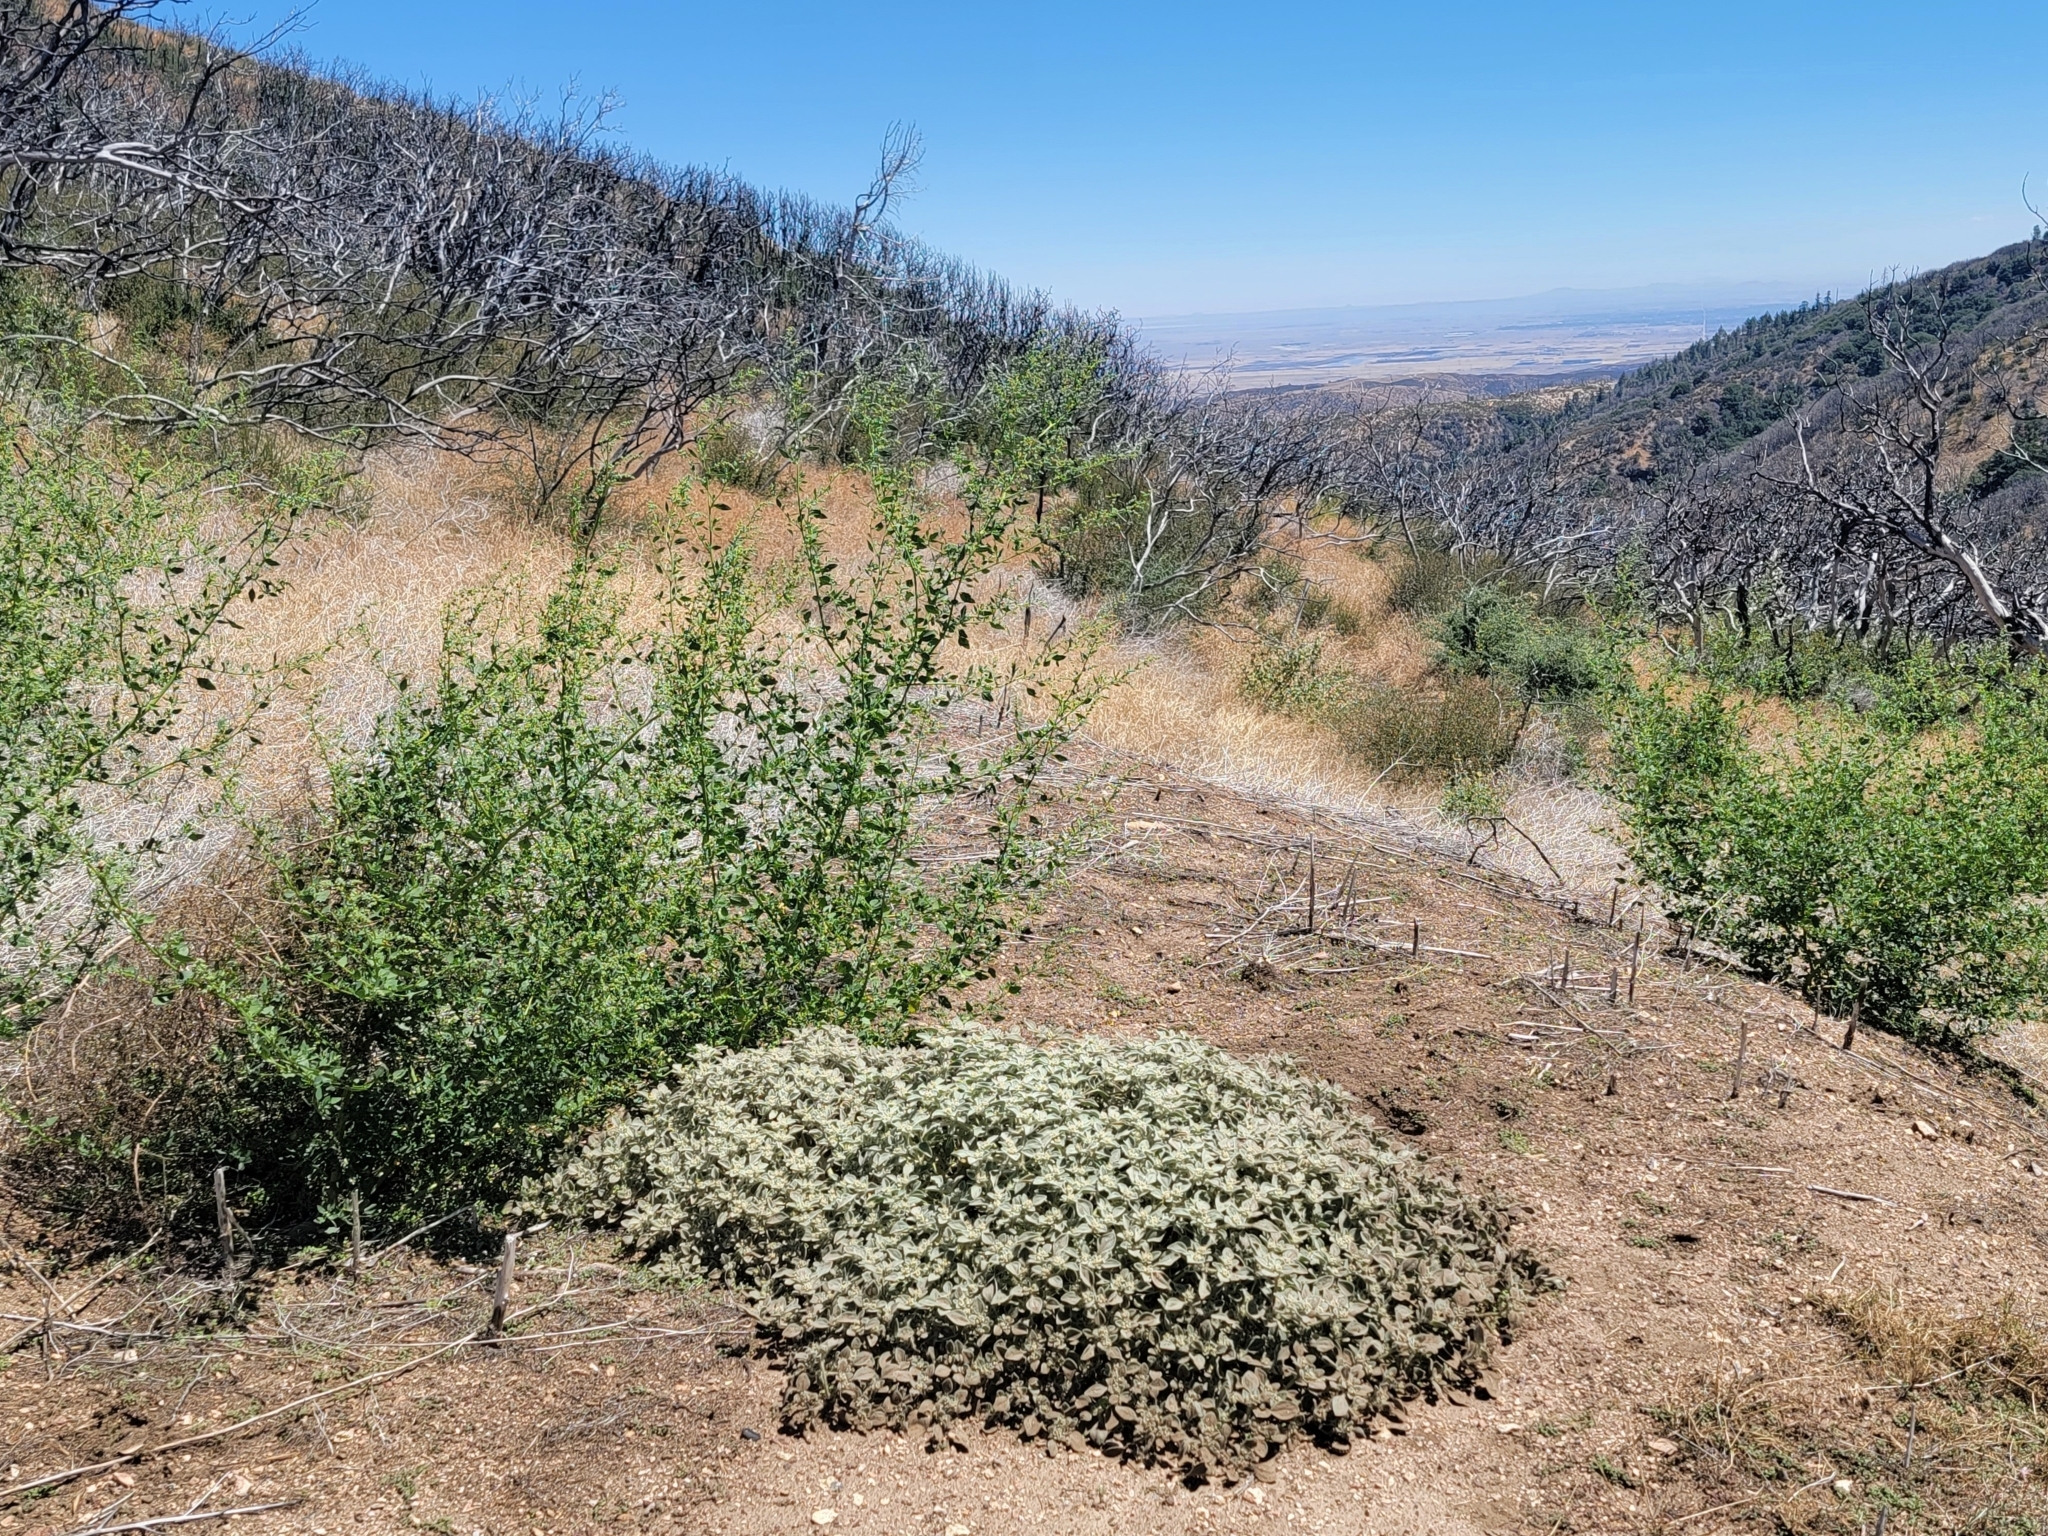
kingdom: Plantae
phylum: Tracheophyta
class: Magnoliopsida
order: Malpighiales
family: Euphorbiaceae
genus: Croton
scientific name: Croton setiger
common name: Dove weed
